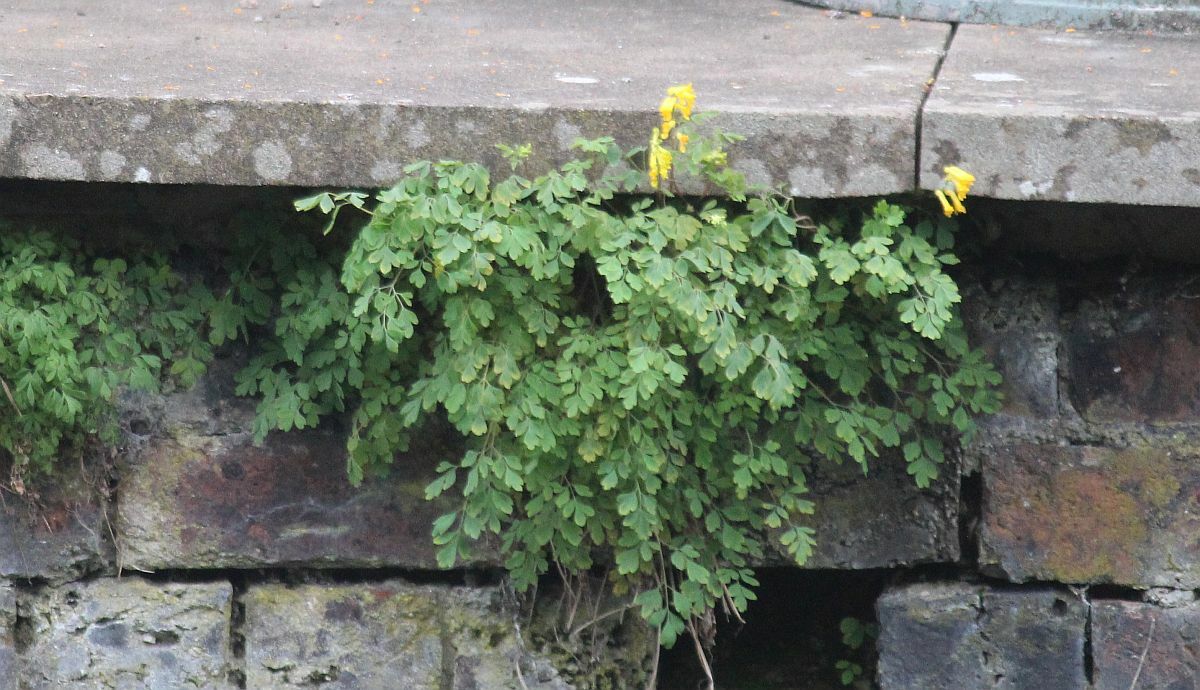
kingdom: Plantae
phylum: Tracheophyta
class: Magnoliopsida
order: Ranunculales
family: Papaveraceae
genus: Pseudofumaria
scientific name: Pseudofumaria lutea
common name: Yellow corydalis
